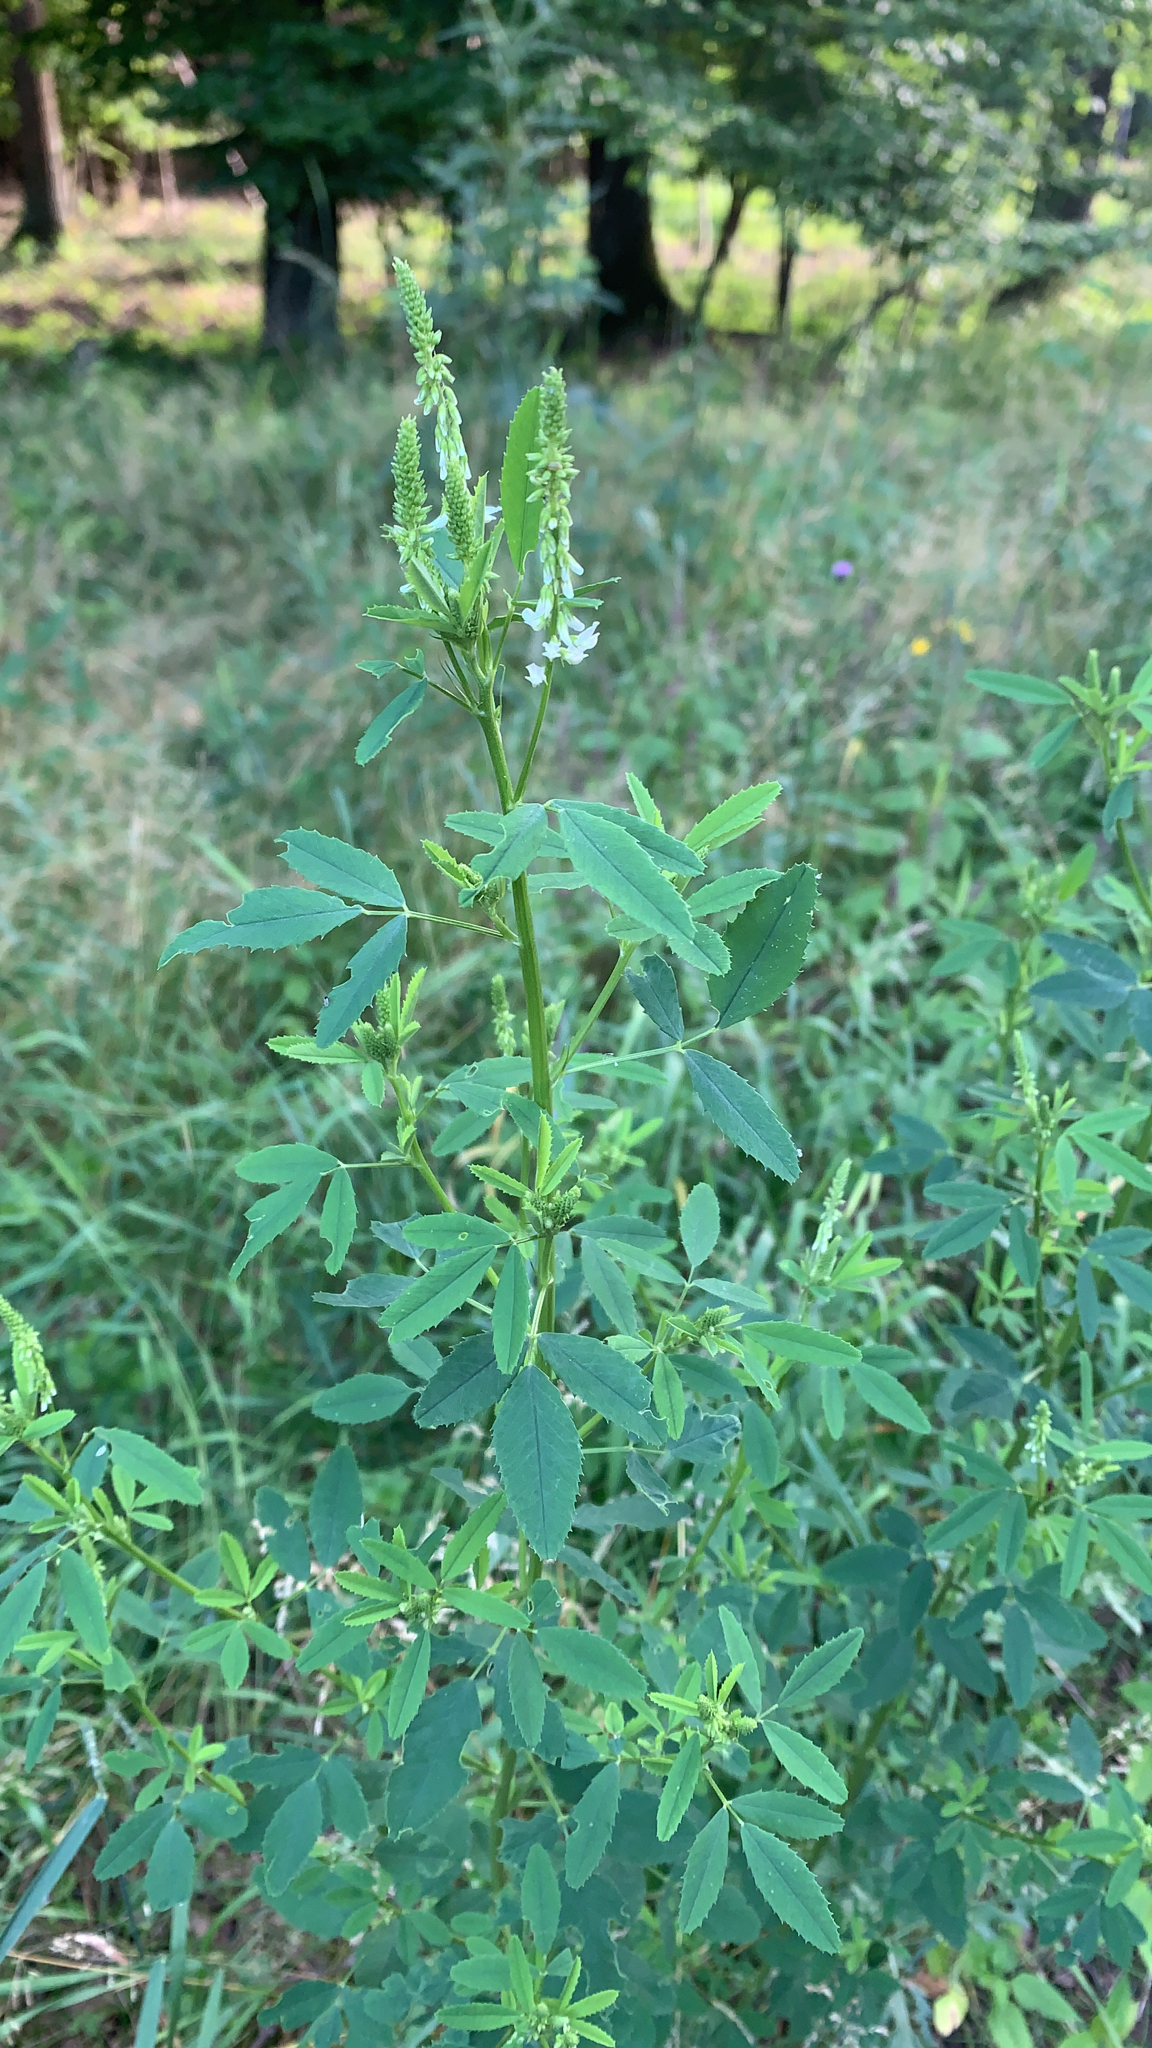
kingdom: Plantae
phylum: Tracheophyta
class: Magnoliopsida
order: Fabales
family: Fabaceae
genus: Melilotus
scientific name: Melilotus albus
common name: White melilot
